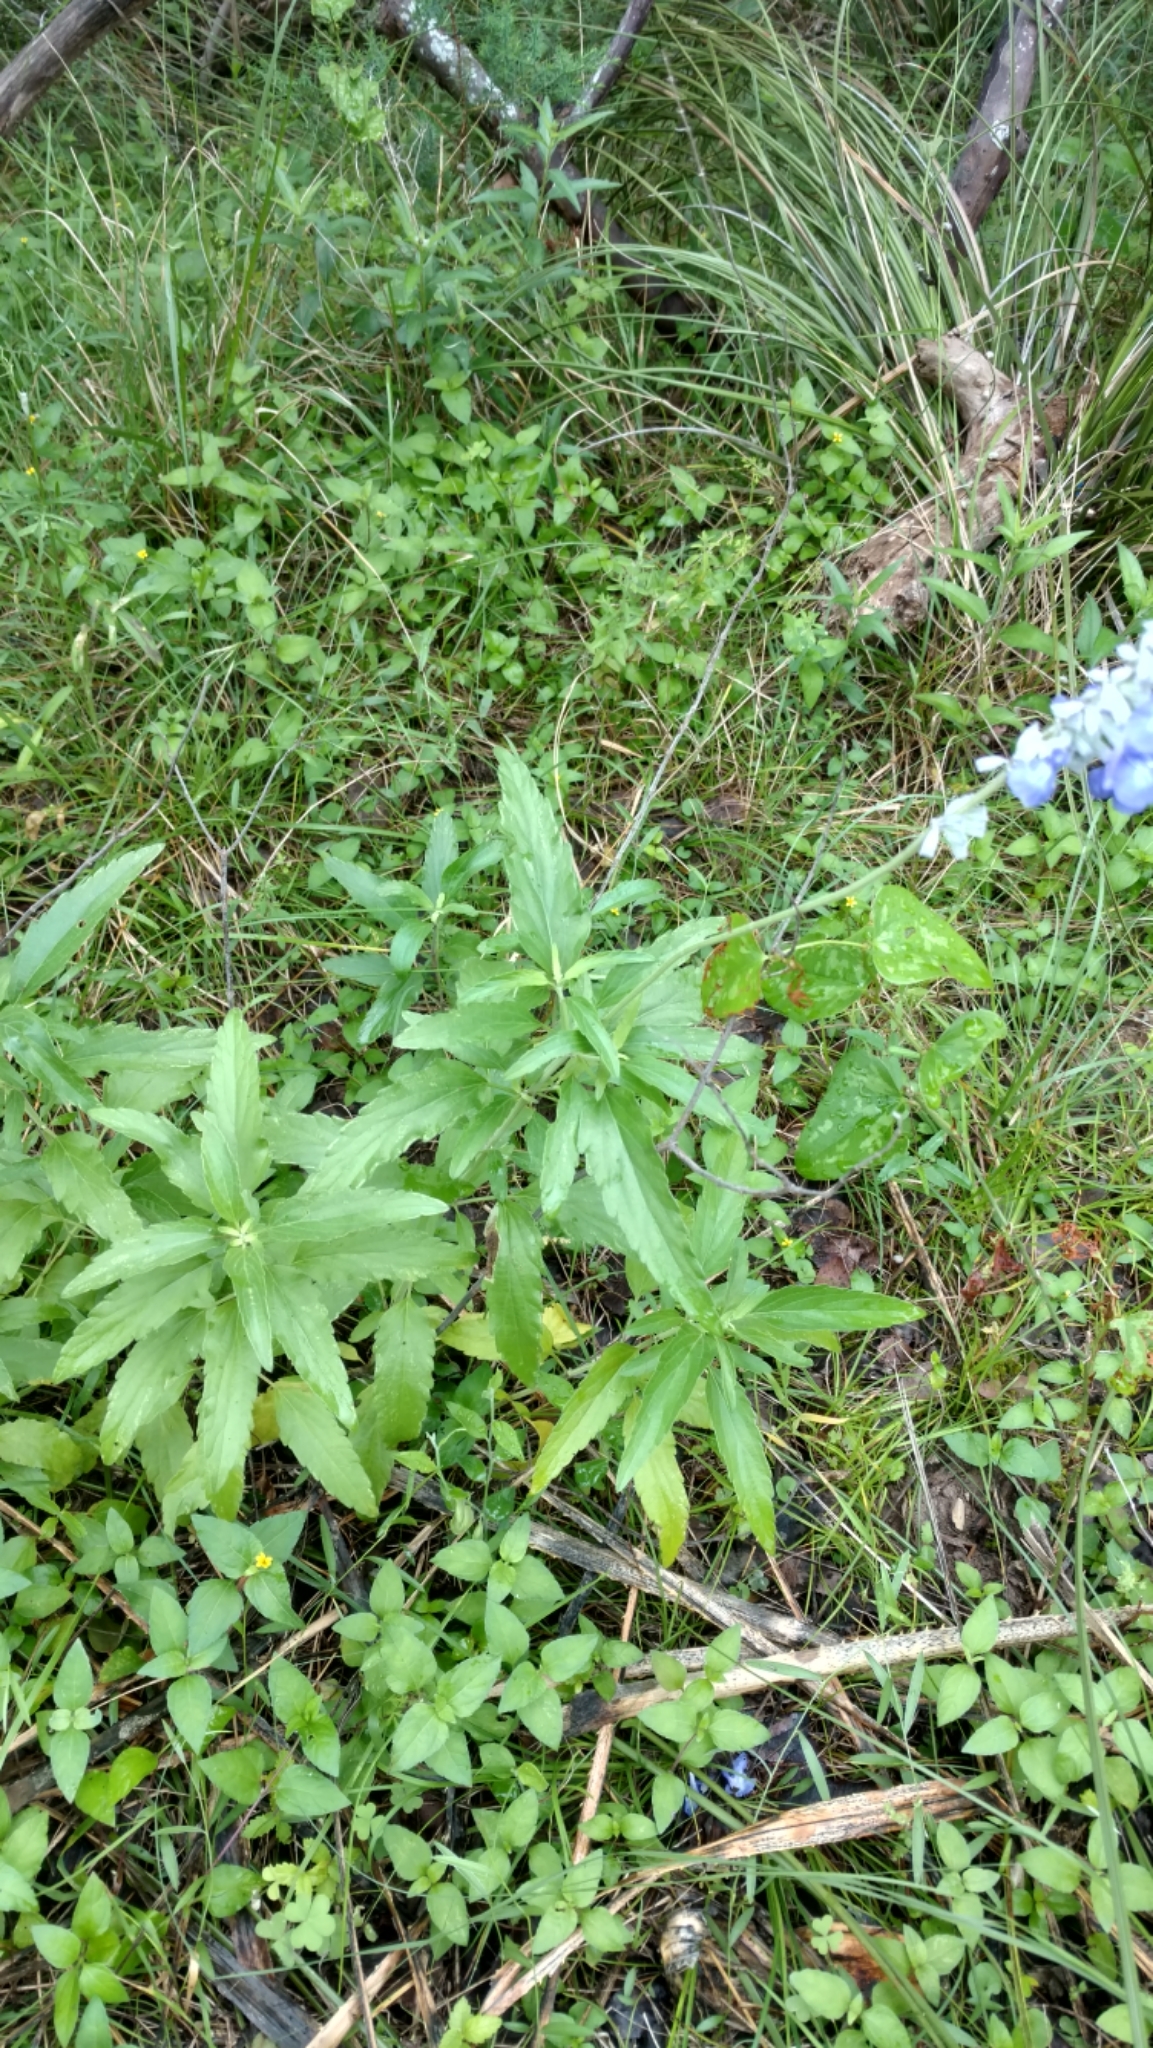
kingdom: Plantae
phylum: Tracheophyta
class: Magnoliopsida
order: Lamiales
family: Lamiaceae
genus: Salvia
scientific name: Salvia farinacea
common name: Mealy sage
